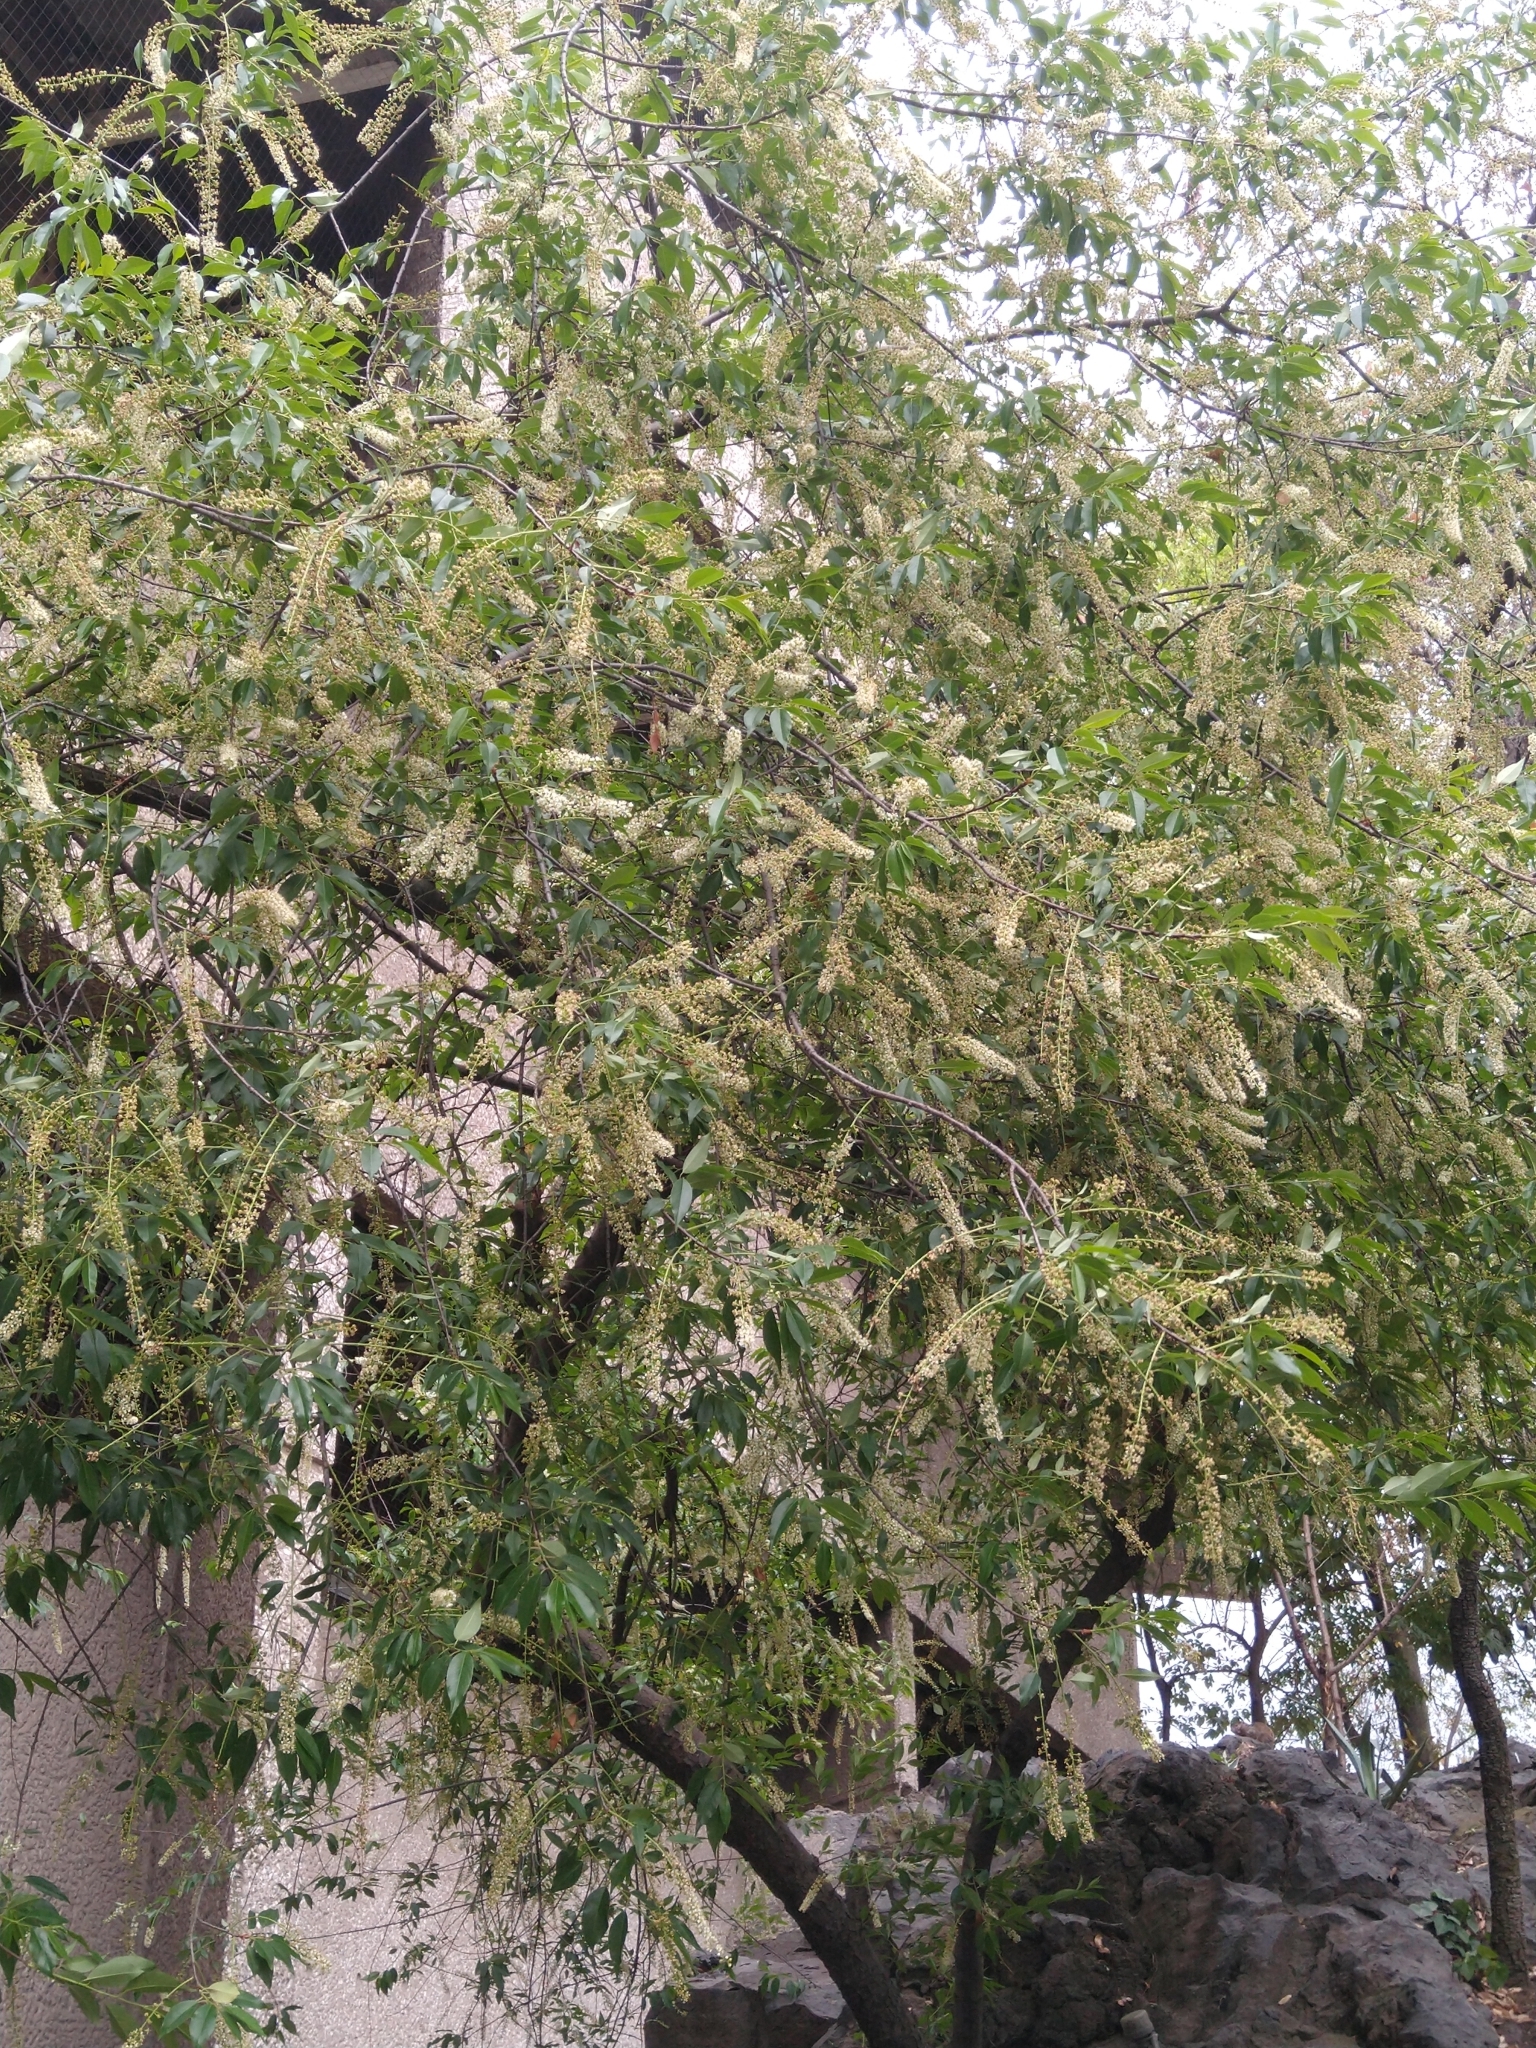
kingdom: Plantae
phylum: Tracheophyta
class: Magnoliopsida
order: Rosales
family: Rosaceae
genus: Prunus
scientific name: Prunus serotina
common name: Black cherry
